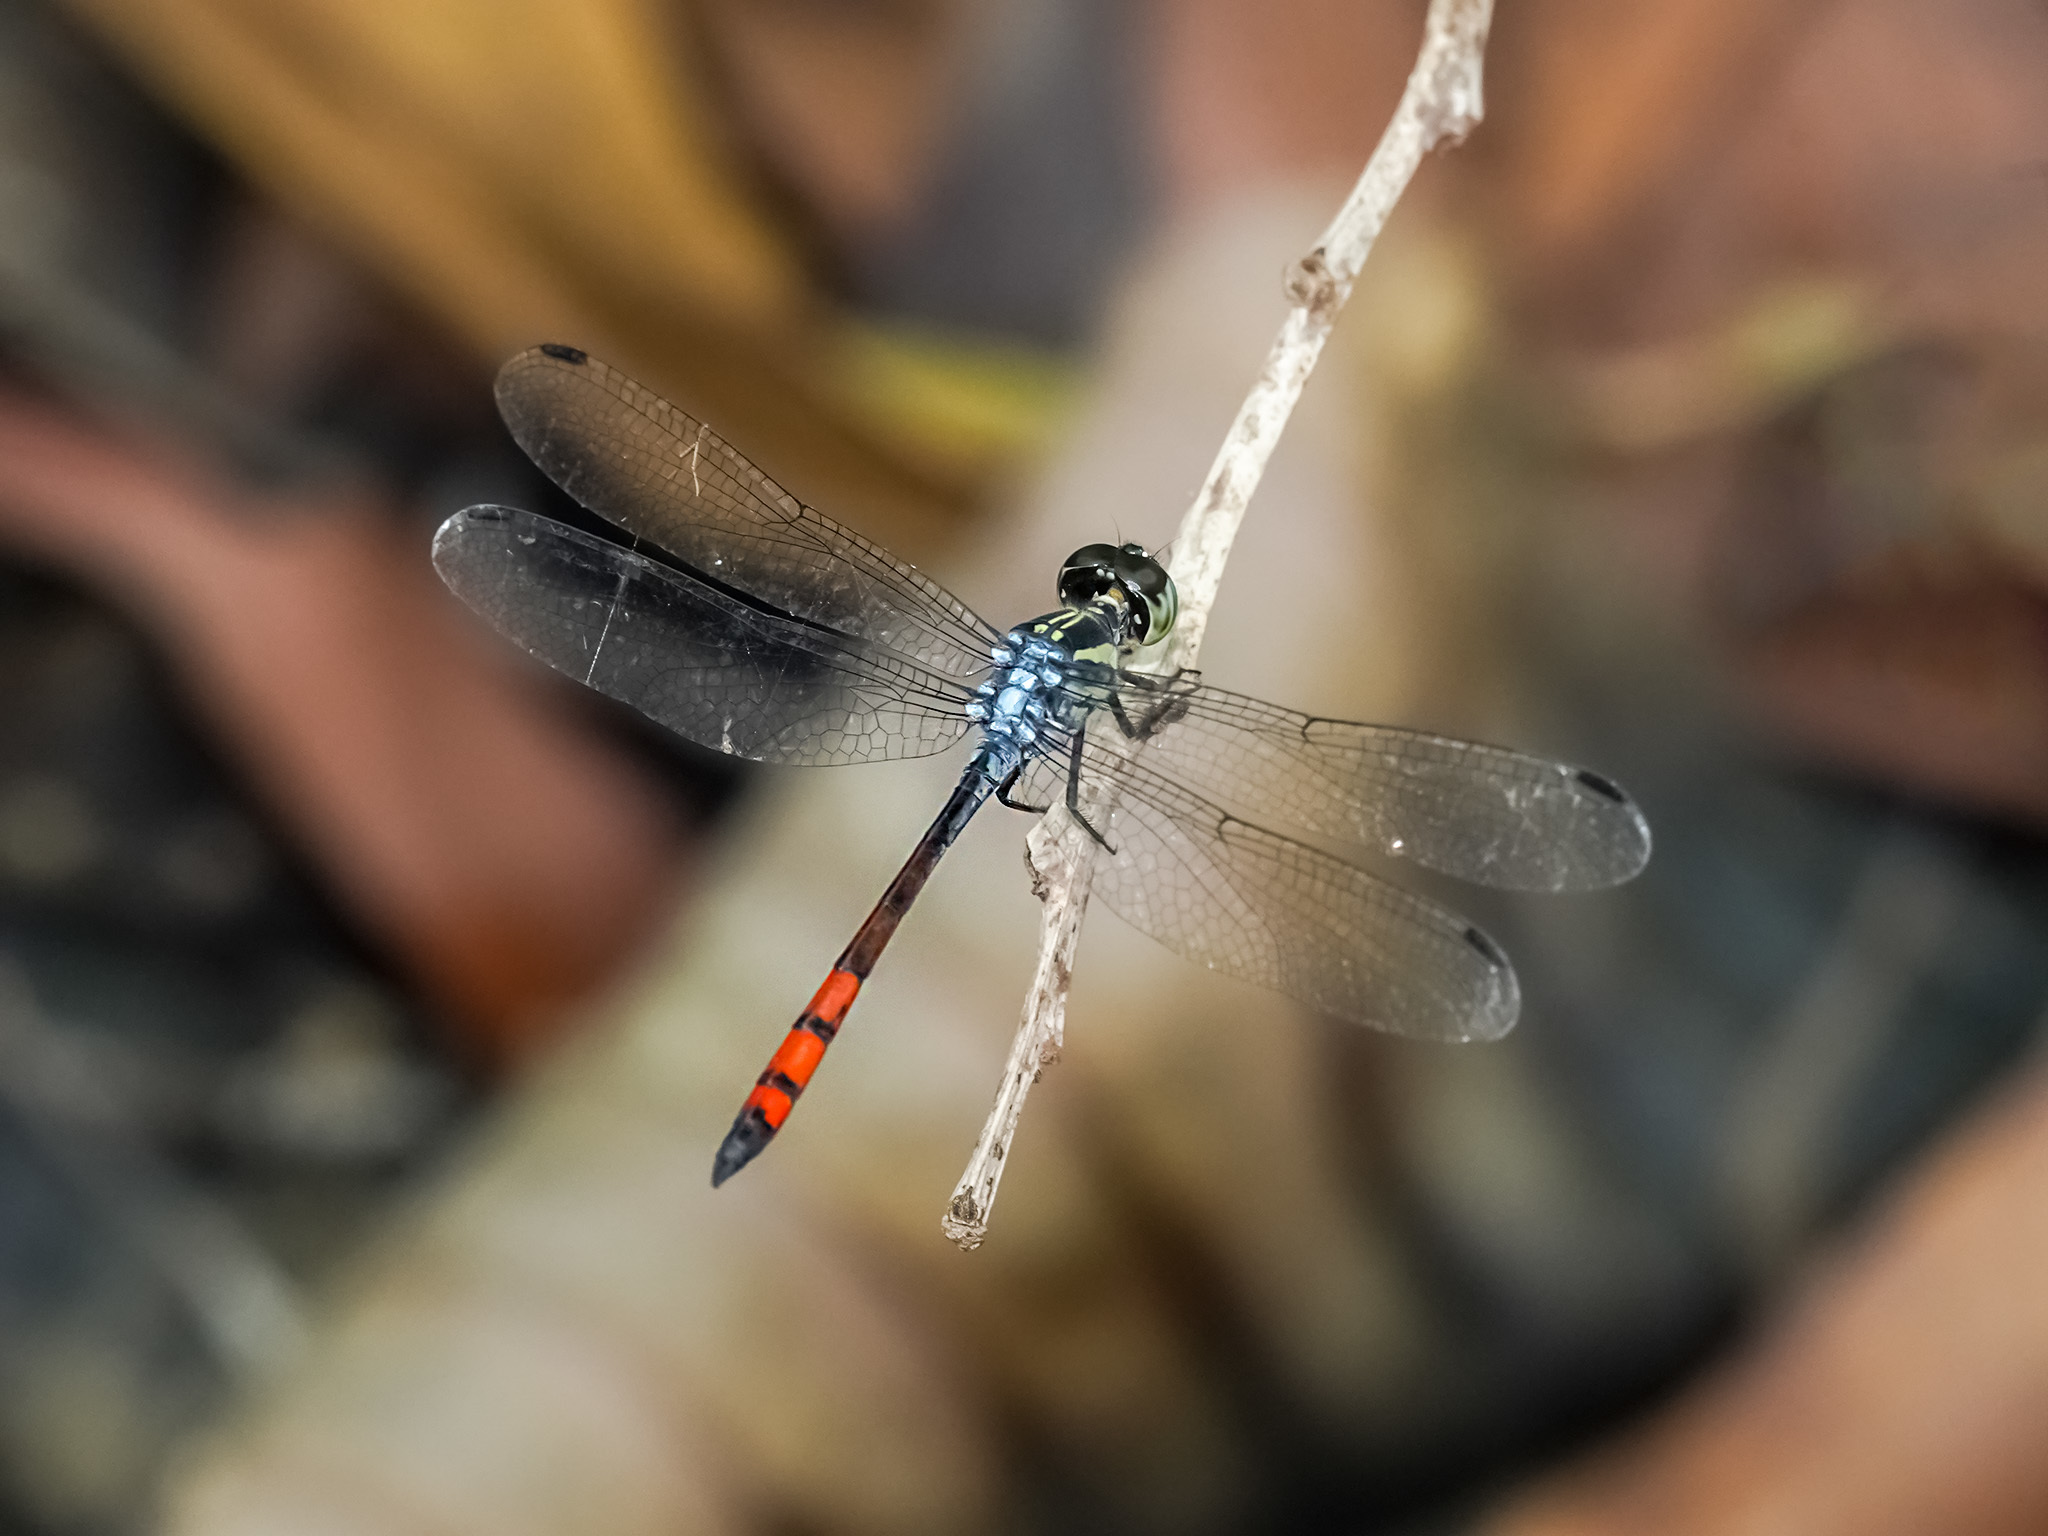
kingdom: Animalia
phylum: Arthropoda
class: Insecta
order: Odonata
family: Libellulidae
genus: Nesoxenia
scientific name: Nesoxenia lineata
